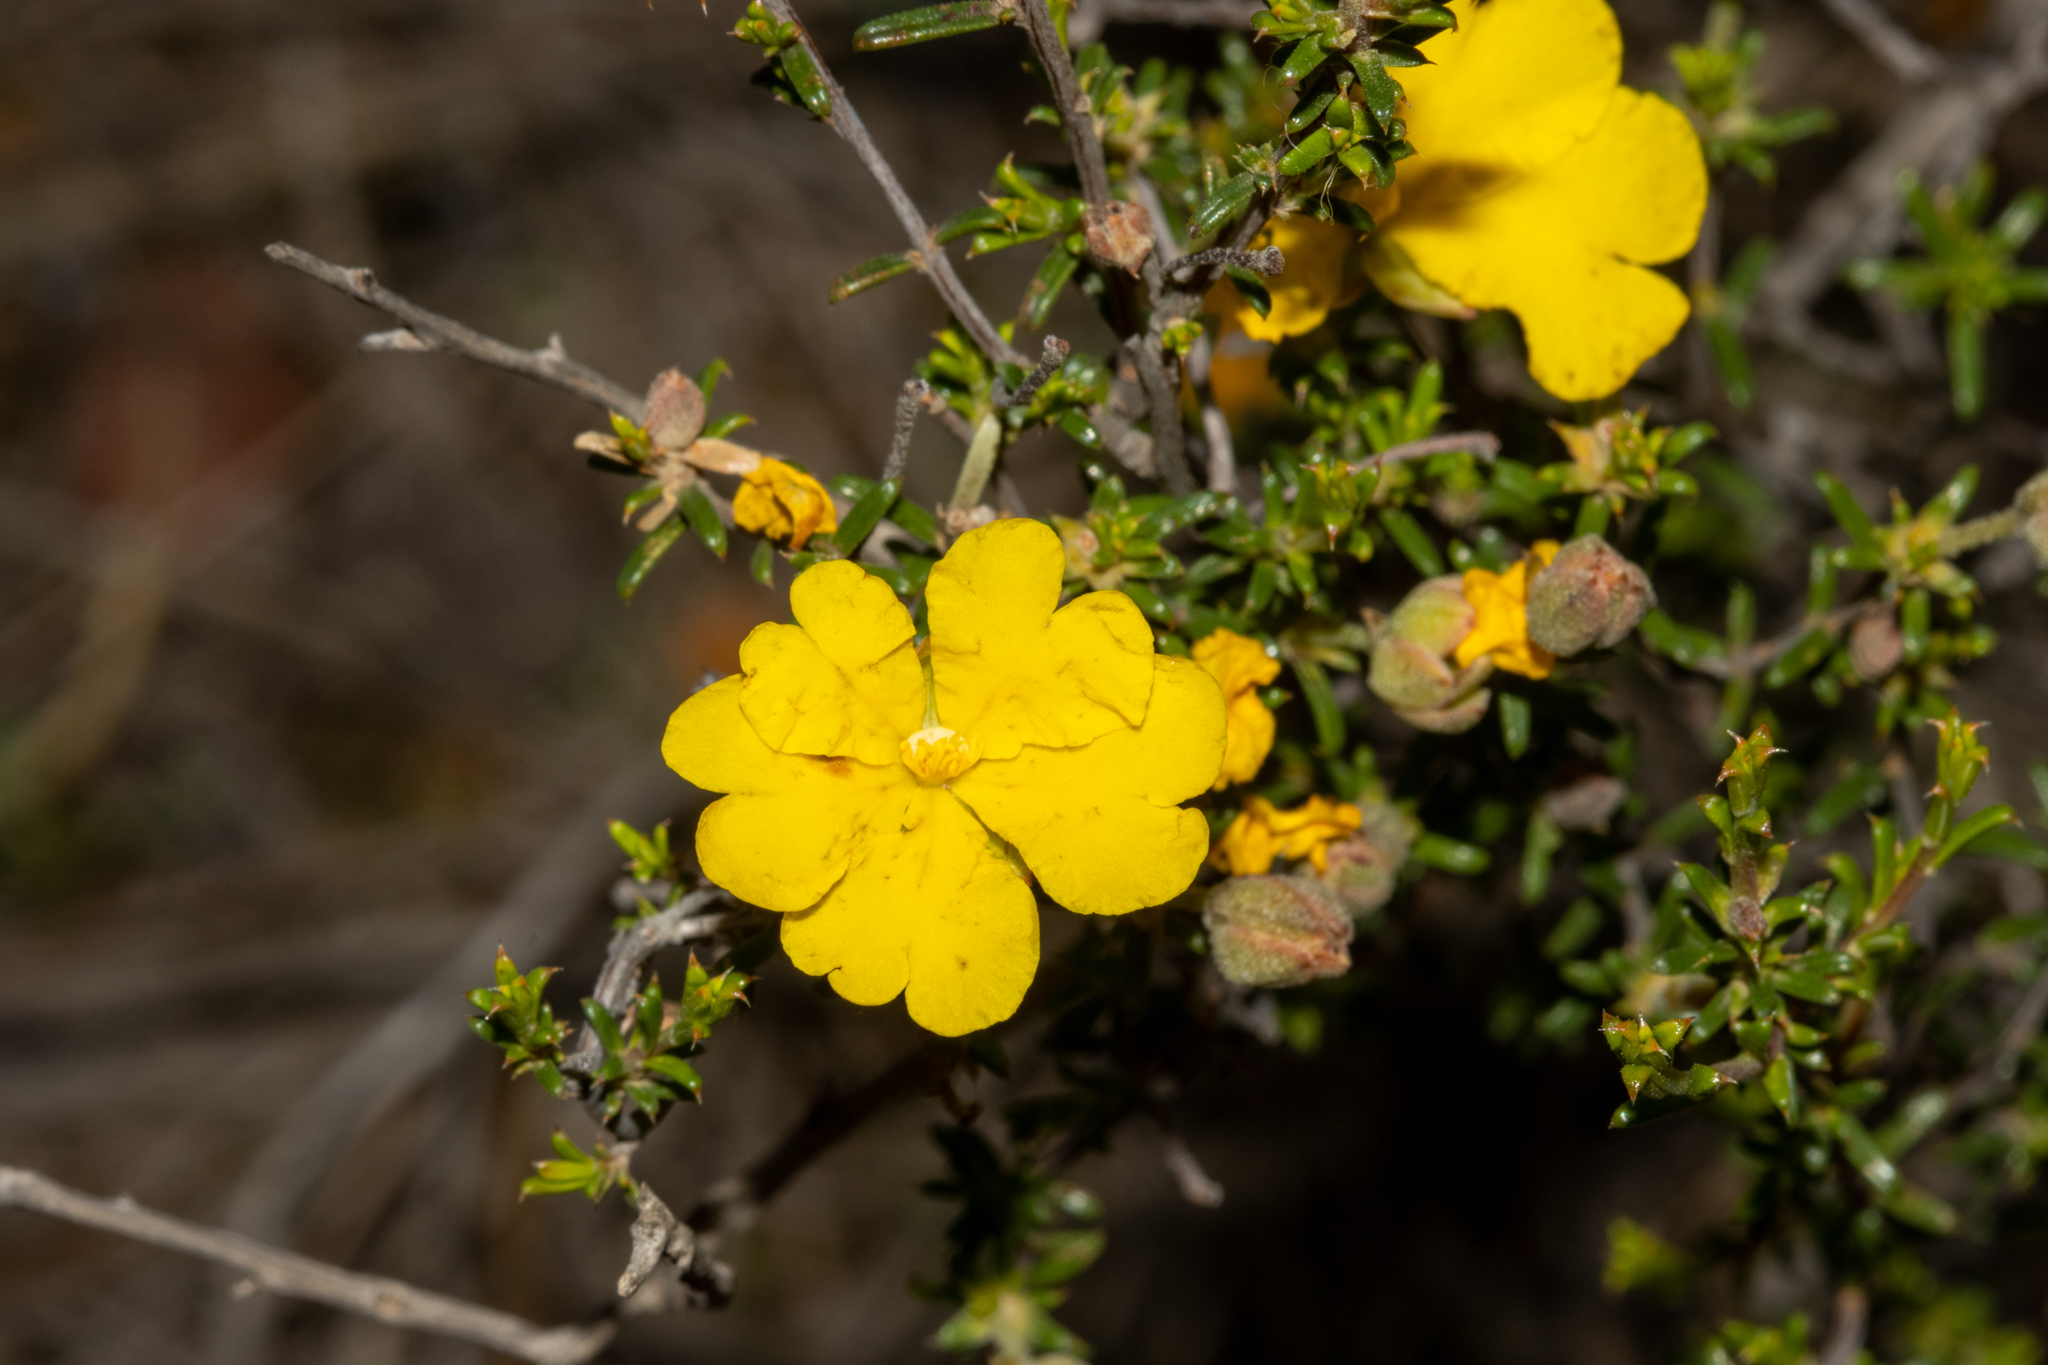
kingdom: Plantae
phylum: Tracheophyta
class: Magnoliopsida
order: Dilleniales
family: Dilleniaceae
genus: Hibbertia
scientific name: Hibbertia eatoniae
